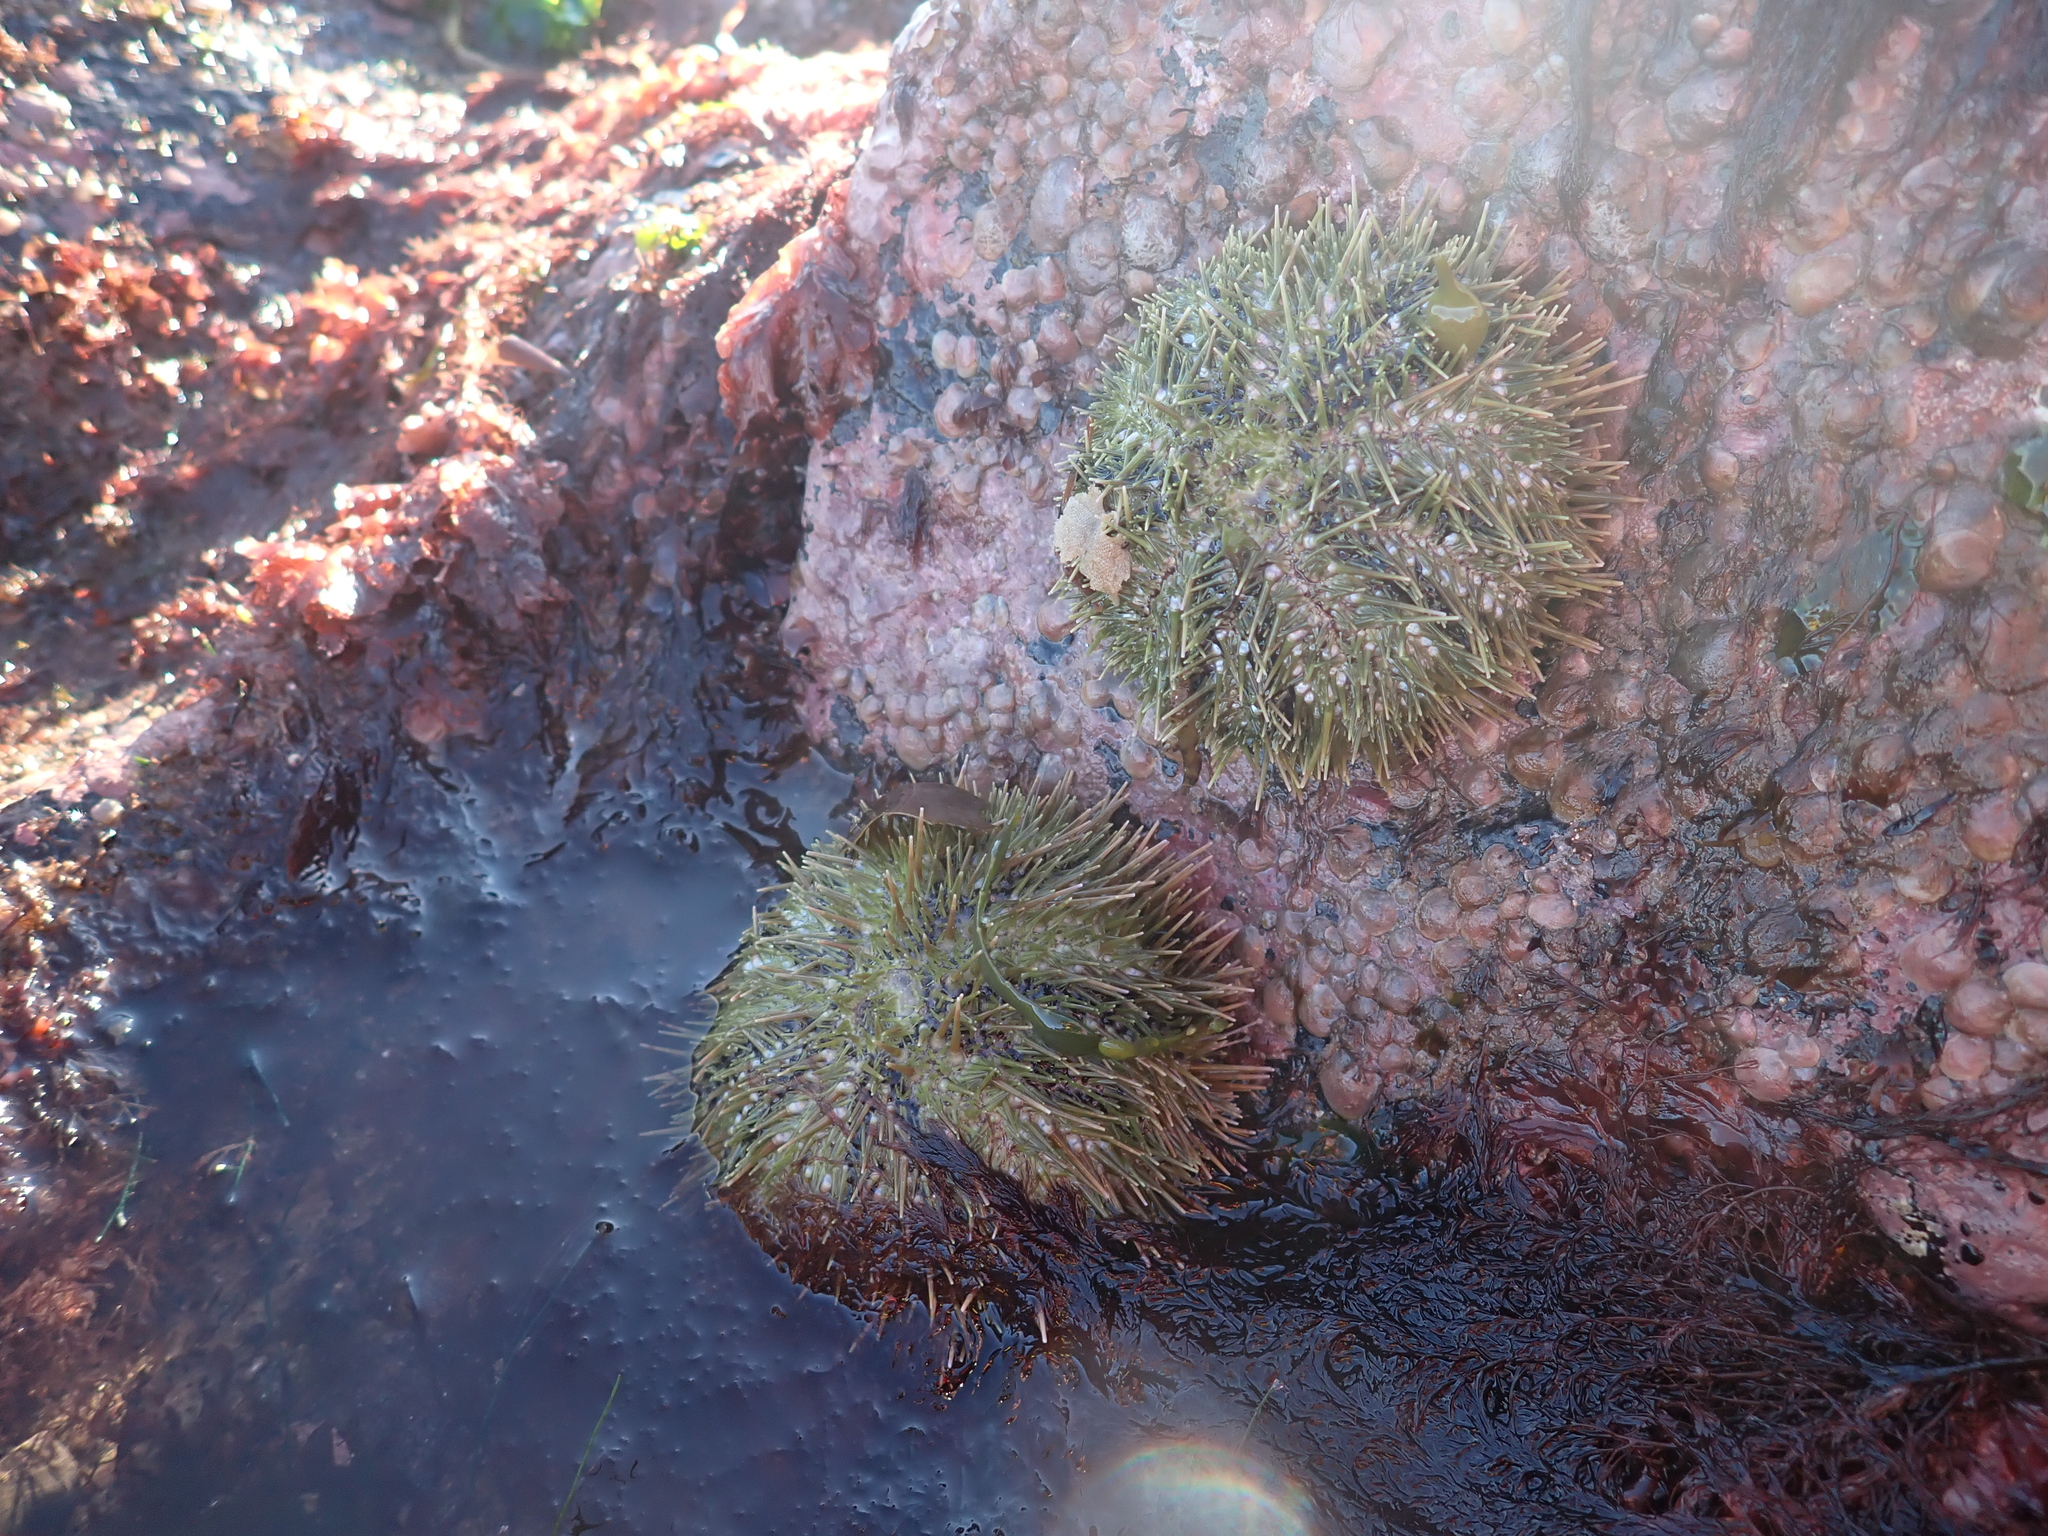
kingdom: Animalia
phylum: Echinodermata
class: Echinoidea
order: Camarodonta
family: Strongylocentrotidae
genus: Strongylocentrotus
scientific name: Strongylocentrotus droebachiensis
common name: Northern sea urchin
